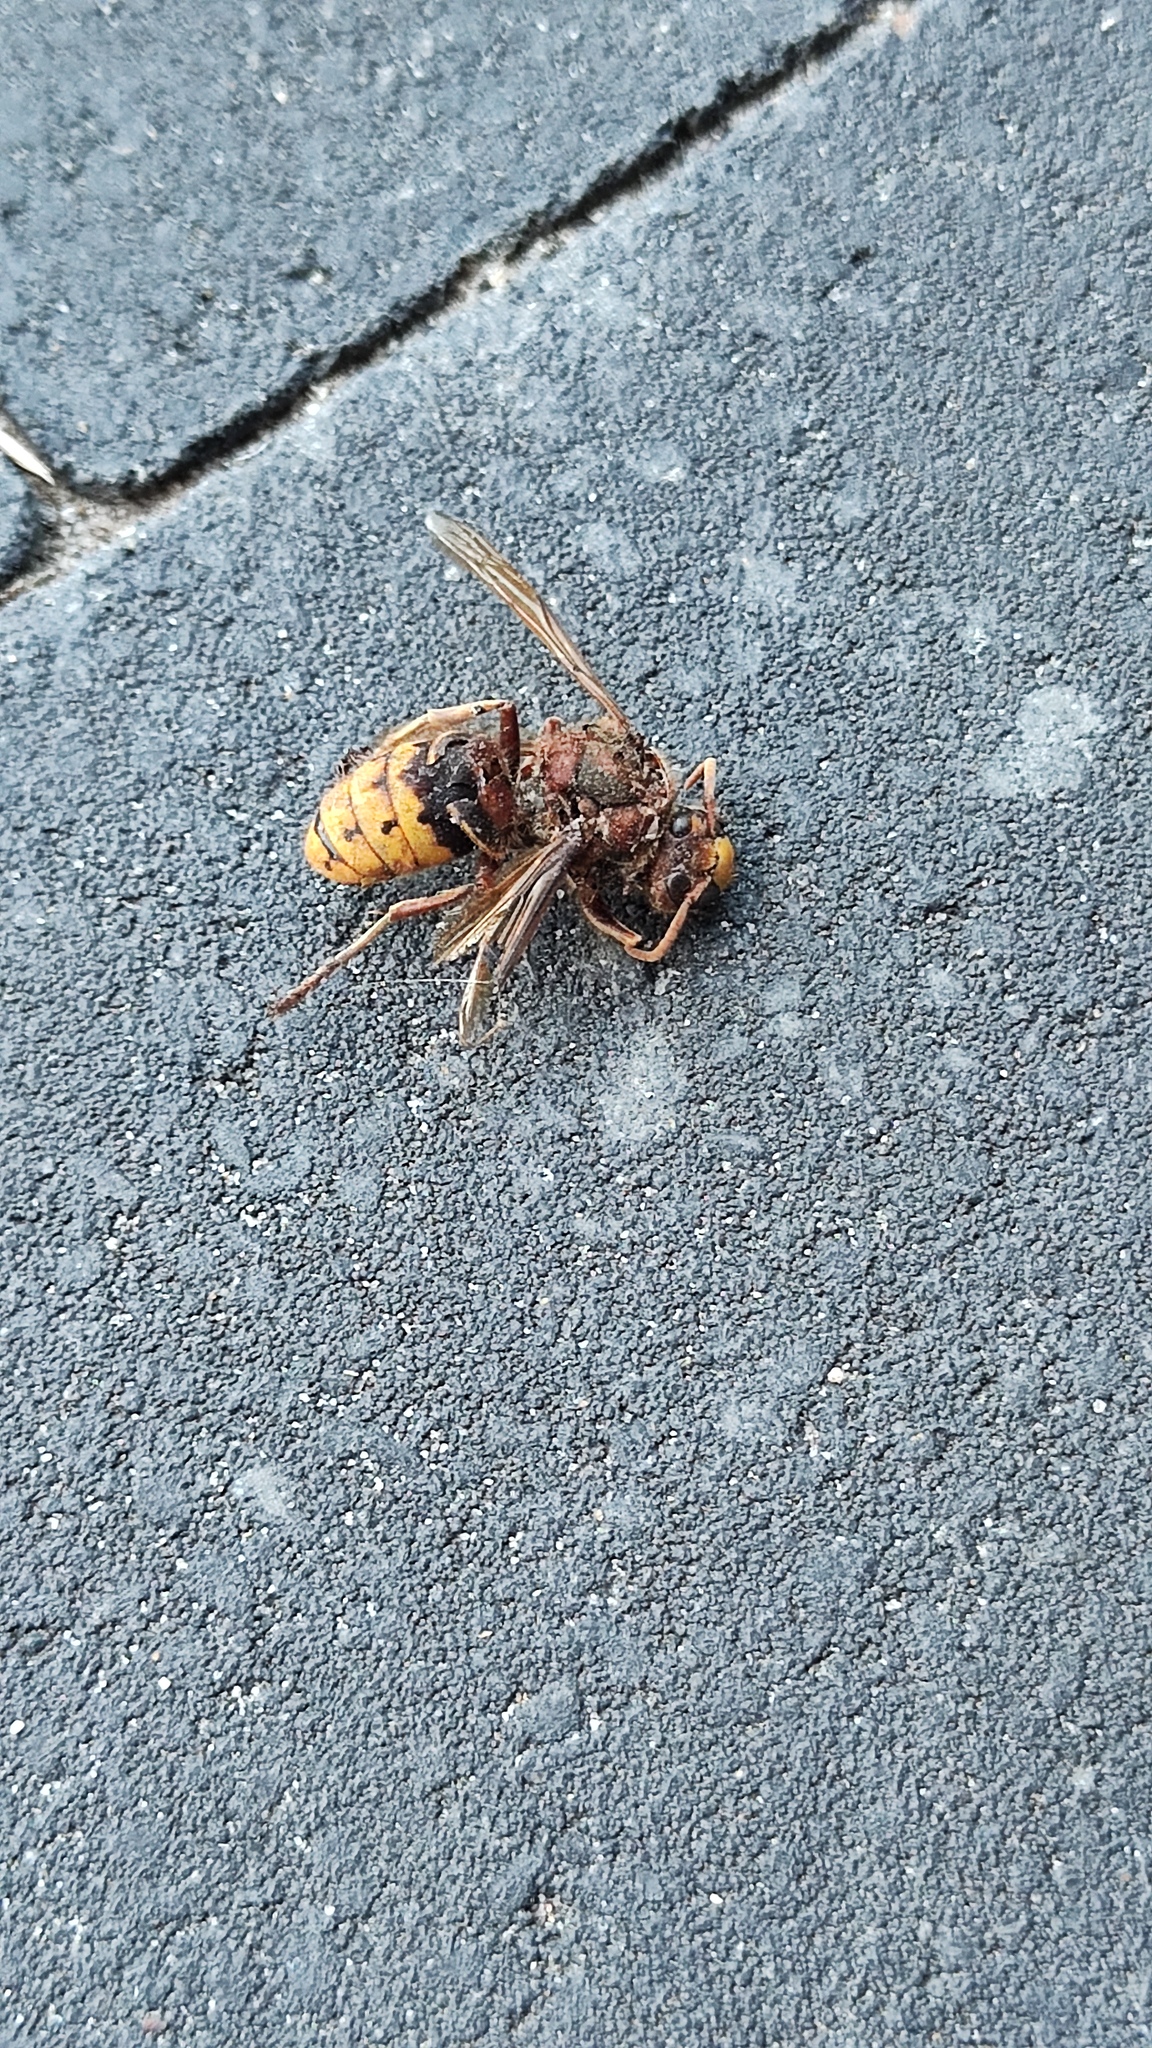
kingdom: Animalia
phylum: Arthropoda
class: Insecta
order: Hymenoptera
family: Vespidae
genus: Vespa
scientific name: Vespa crabro
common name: Hornet
